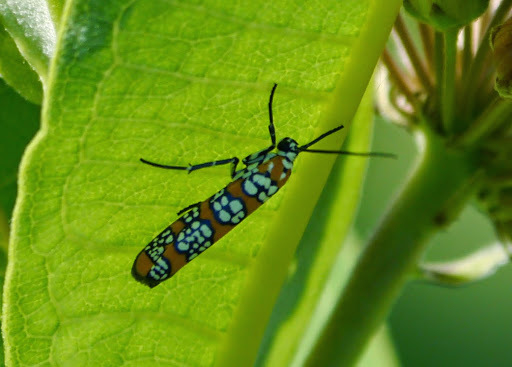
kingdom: Animalia
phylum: Arthropoda
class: Insecta
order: Lepidoptera
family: Attevidae
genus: Atteva
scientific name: Atteva punctella
